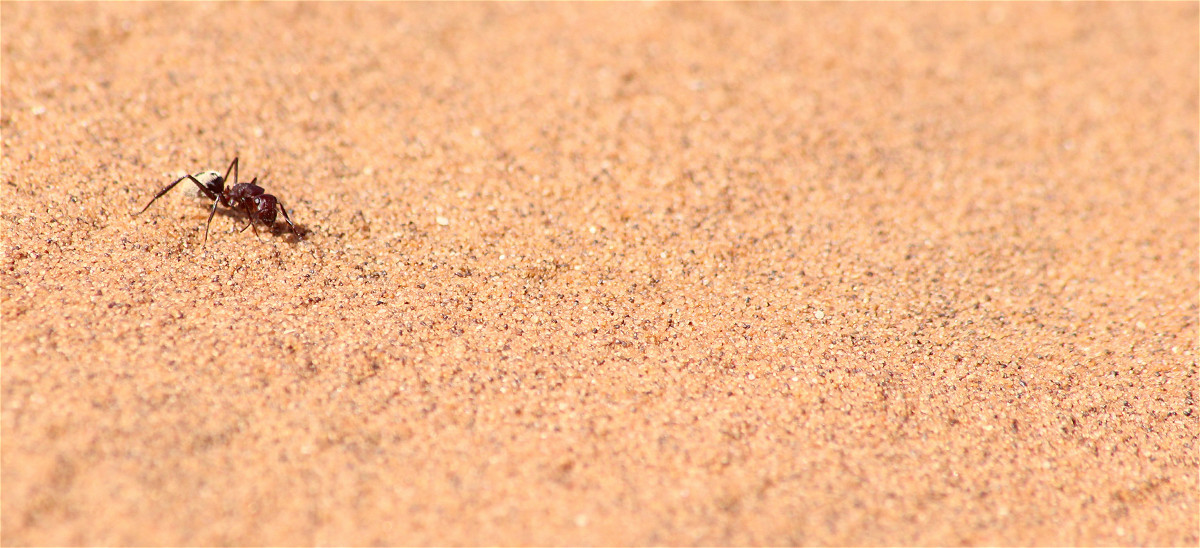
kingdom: Animalia
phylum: Arthropoda
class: Insecta
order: Hymenoptera
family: Formicidae
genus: Camponotus
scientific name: Camponotus detritus
